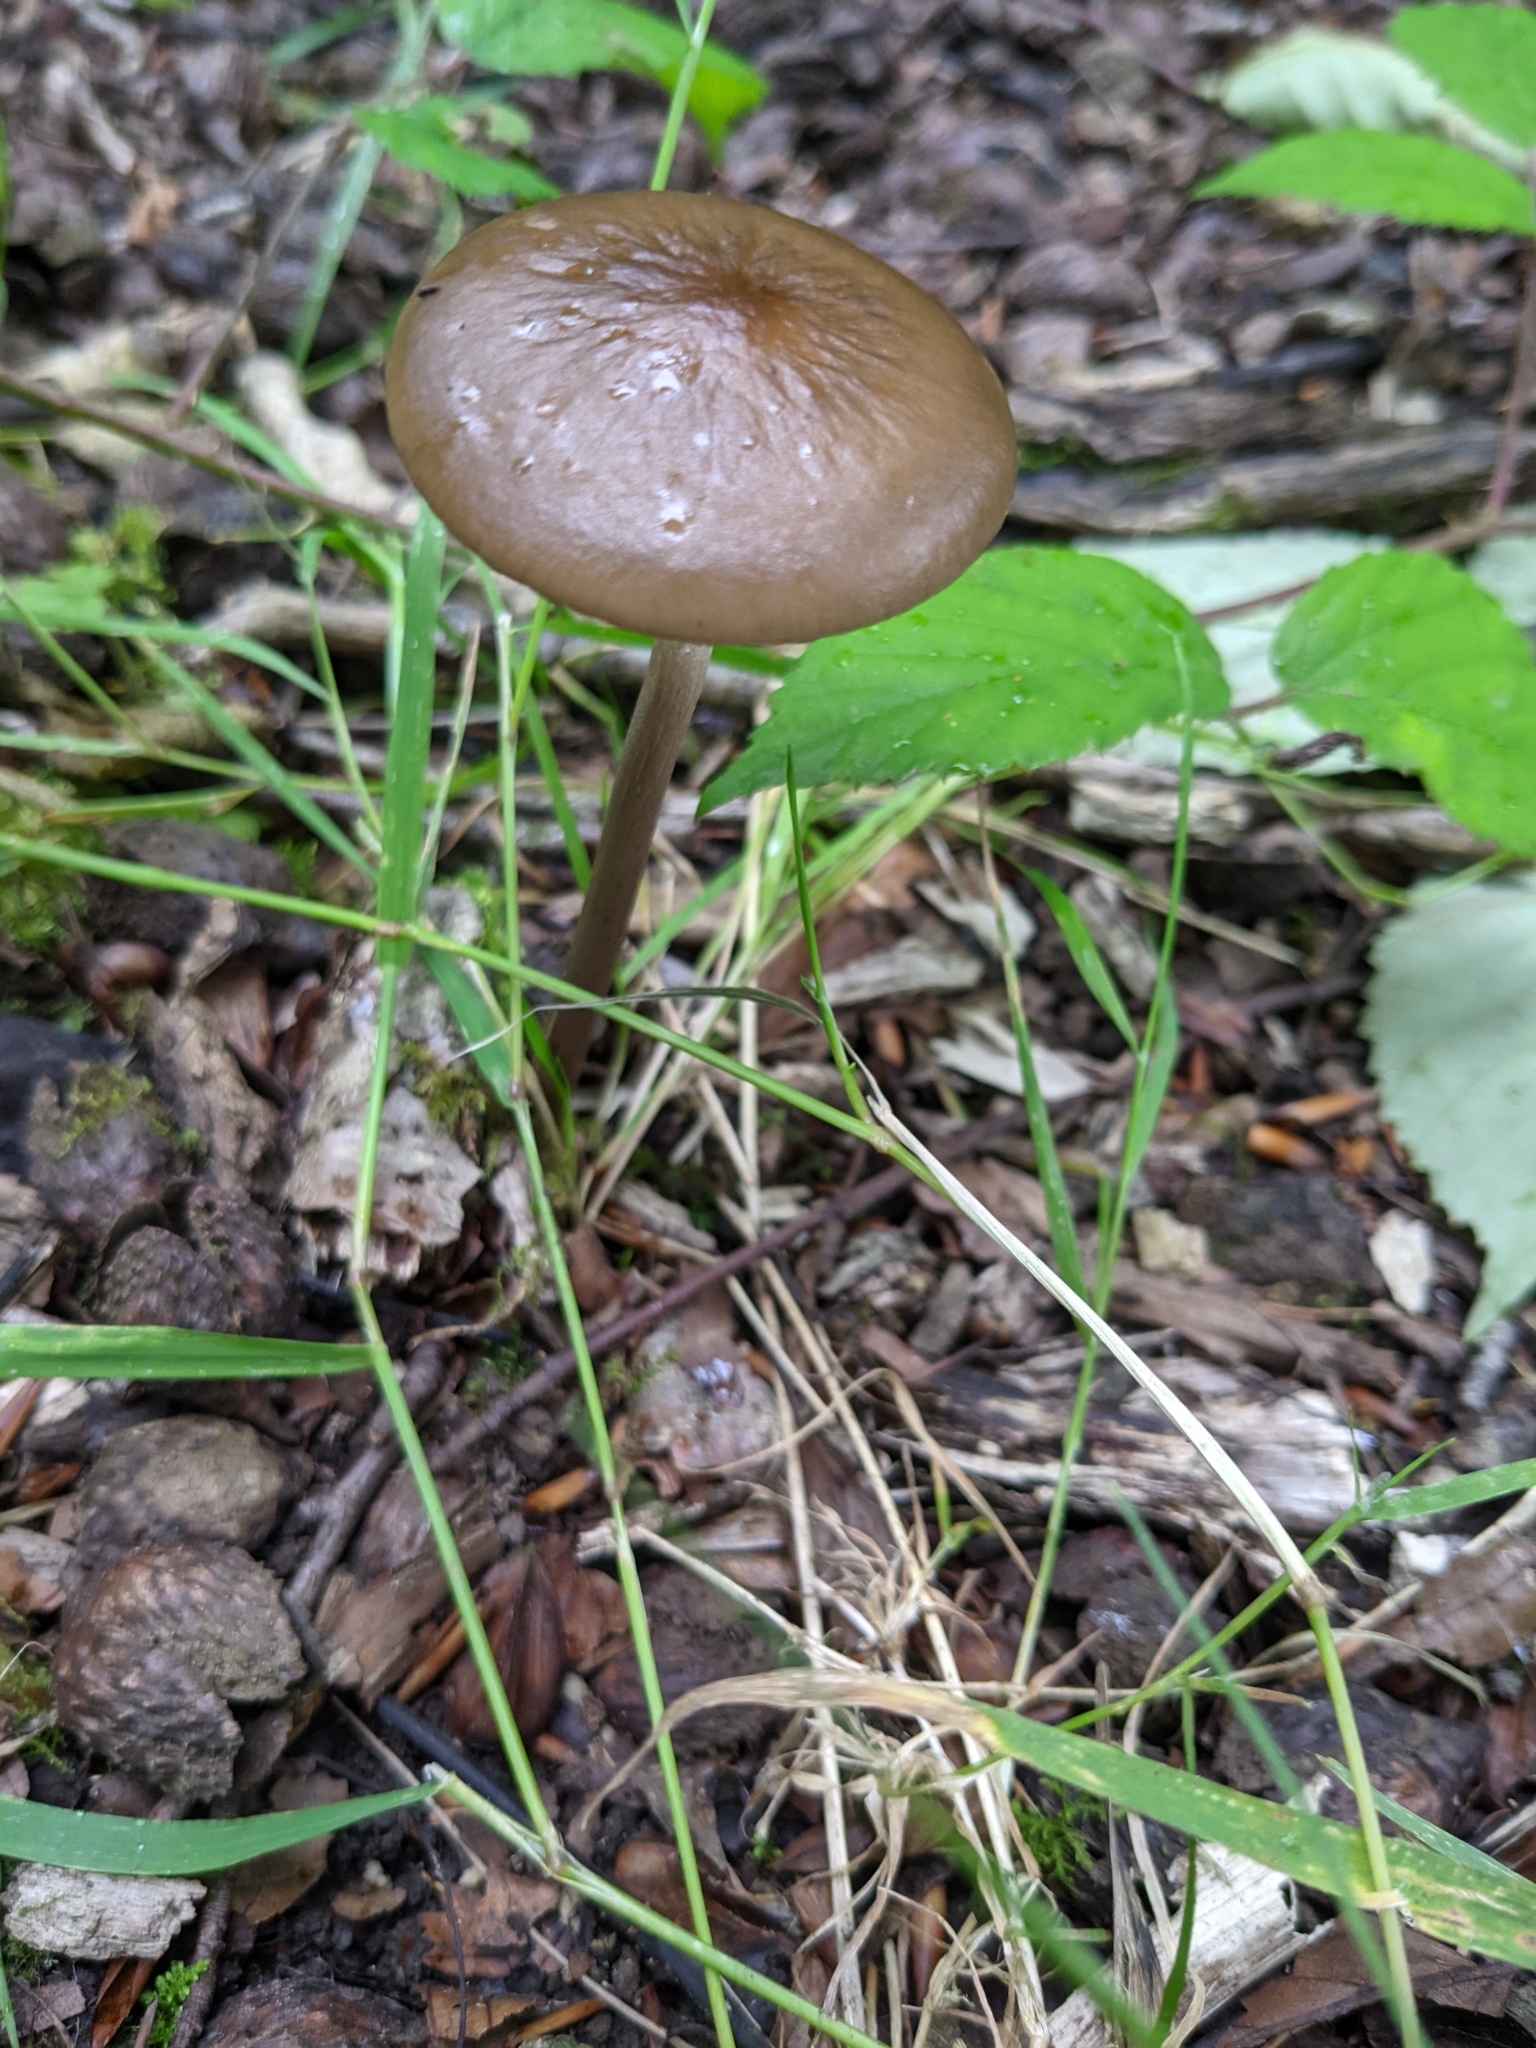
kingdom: Fungi
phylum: Basidiomycota
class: Agaricomycetes
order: Agaricales
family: Physalacriaceae
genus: Hymenopellis
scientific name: Hymenopellis radicata
